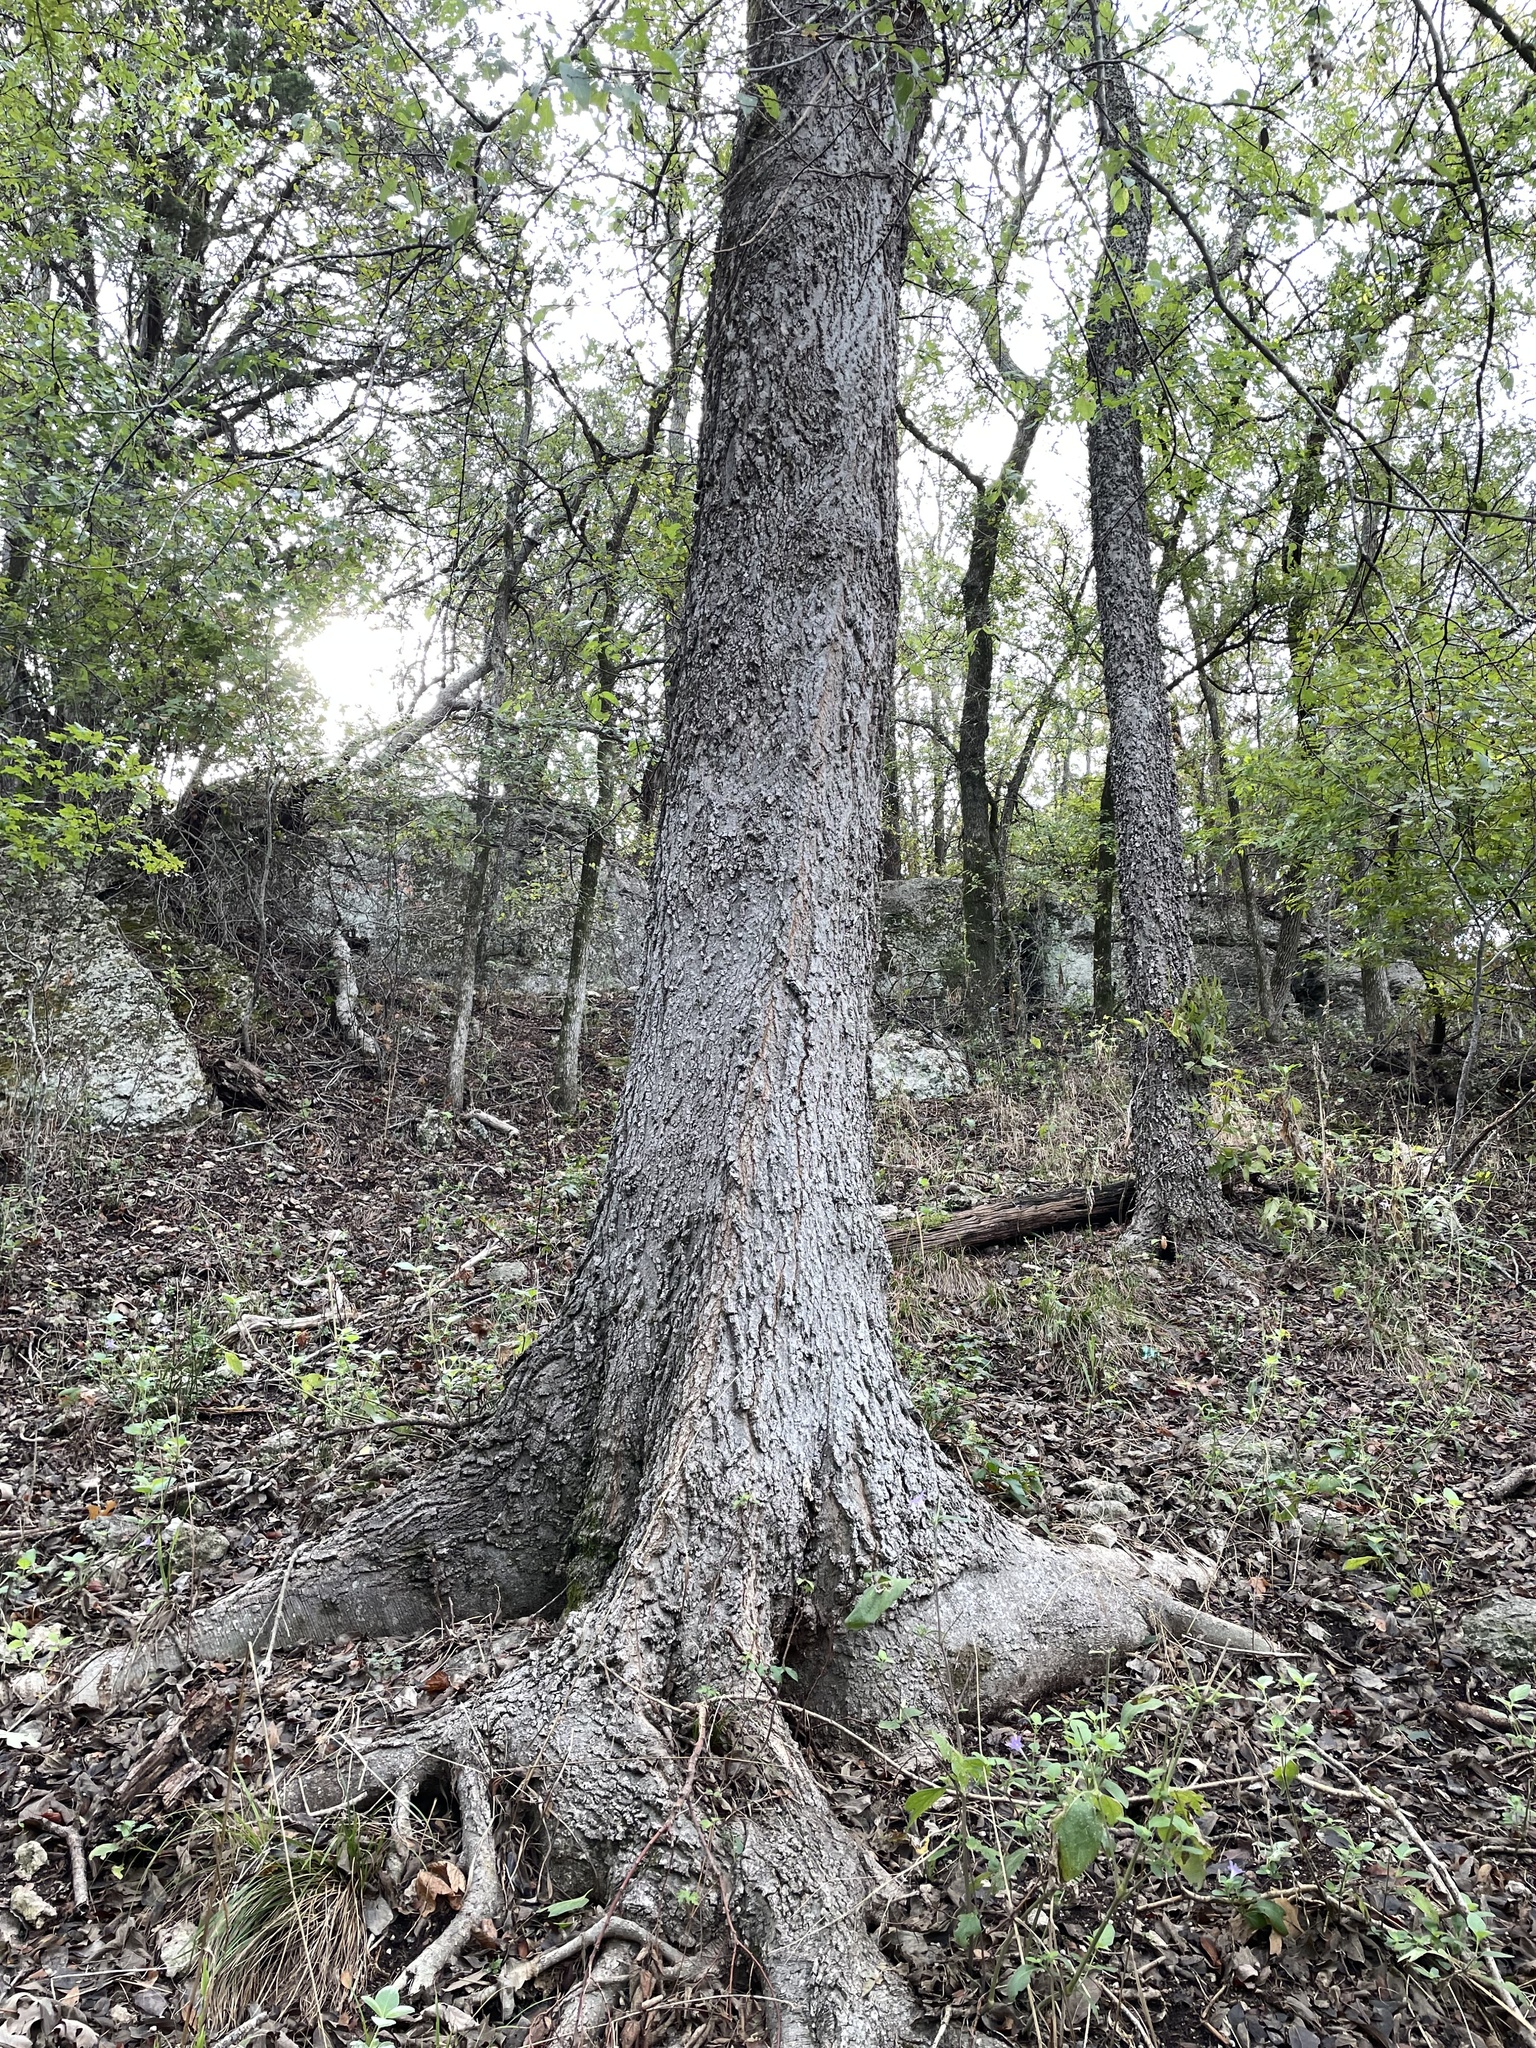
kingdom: Plantae
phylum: Tracheophyta
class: Magnoliopsida
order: Rosales
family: Cannabaceae
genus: Celtis
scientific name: Celtis laevigata
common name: Sugarberry
